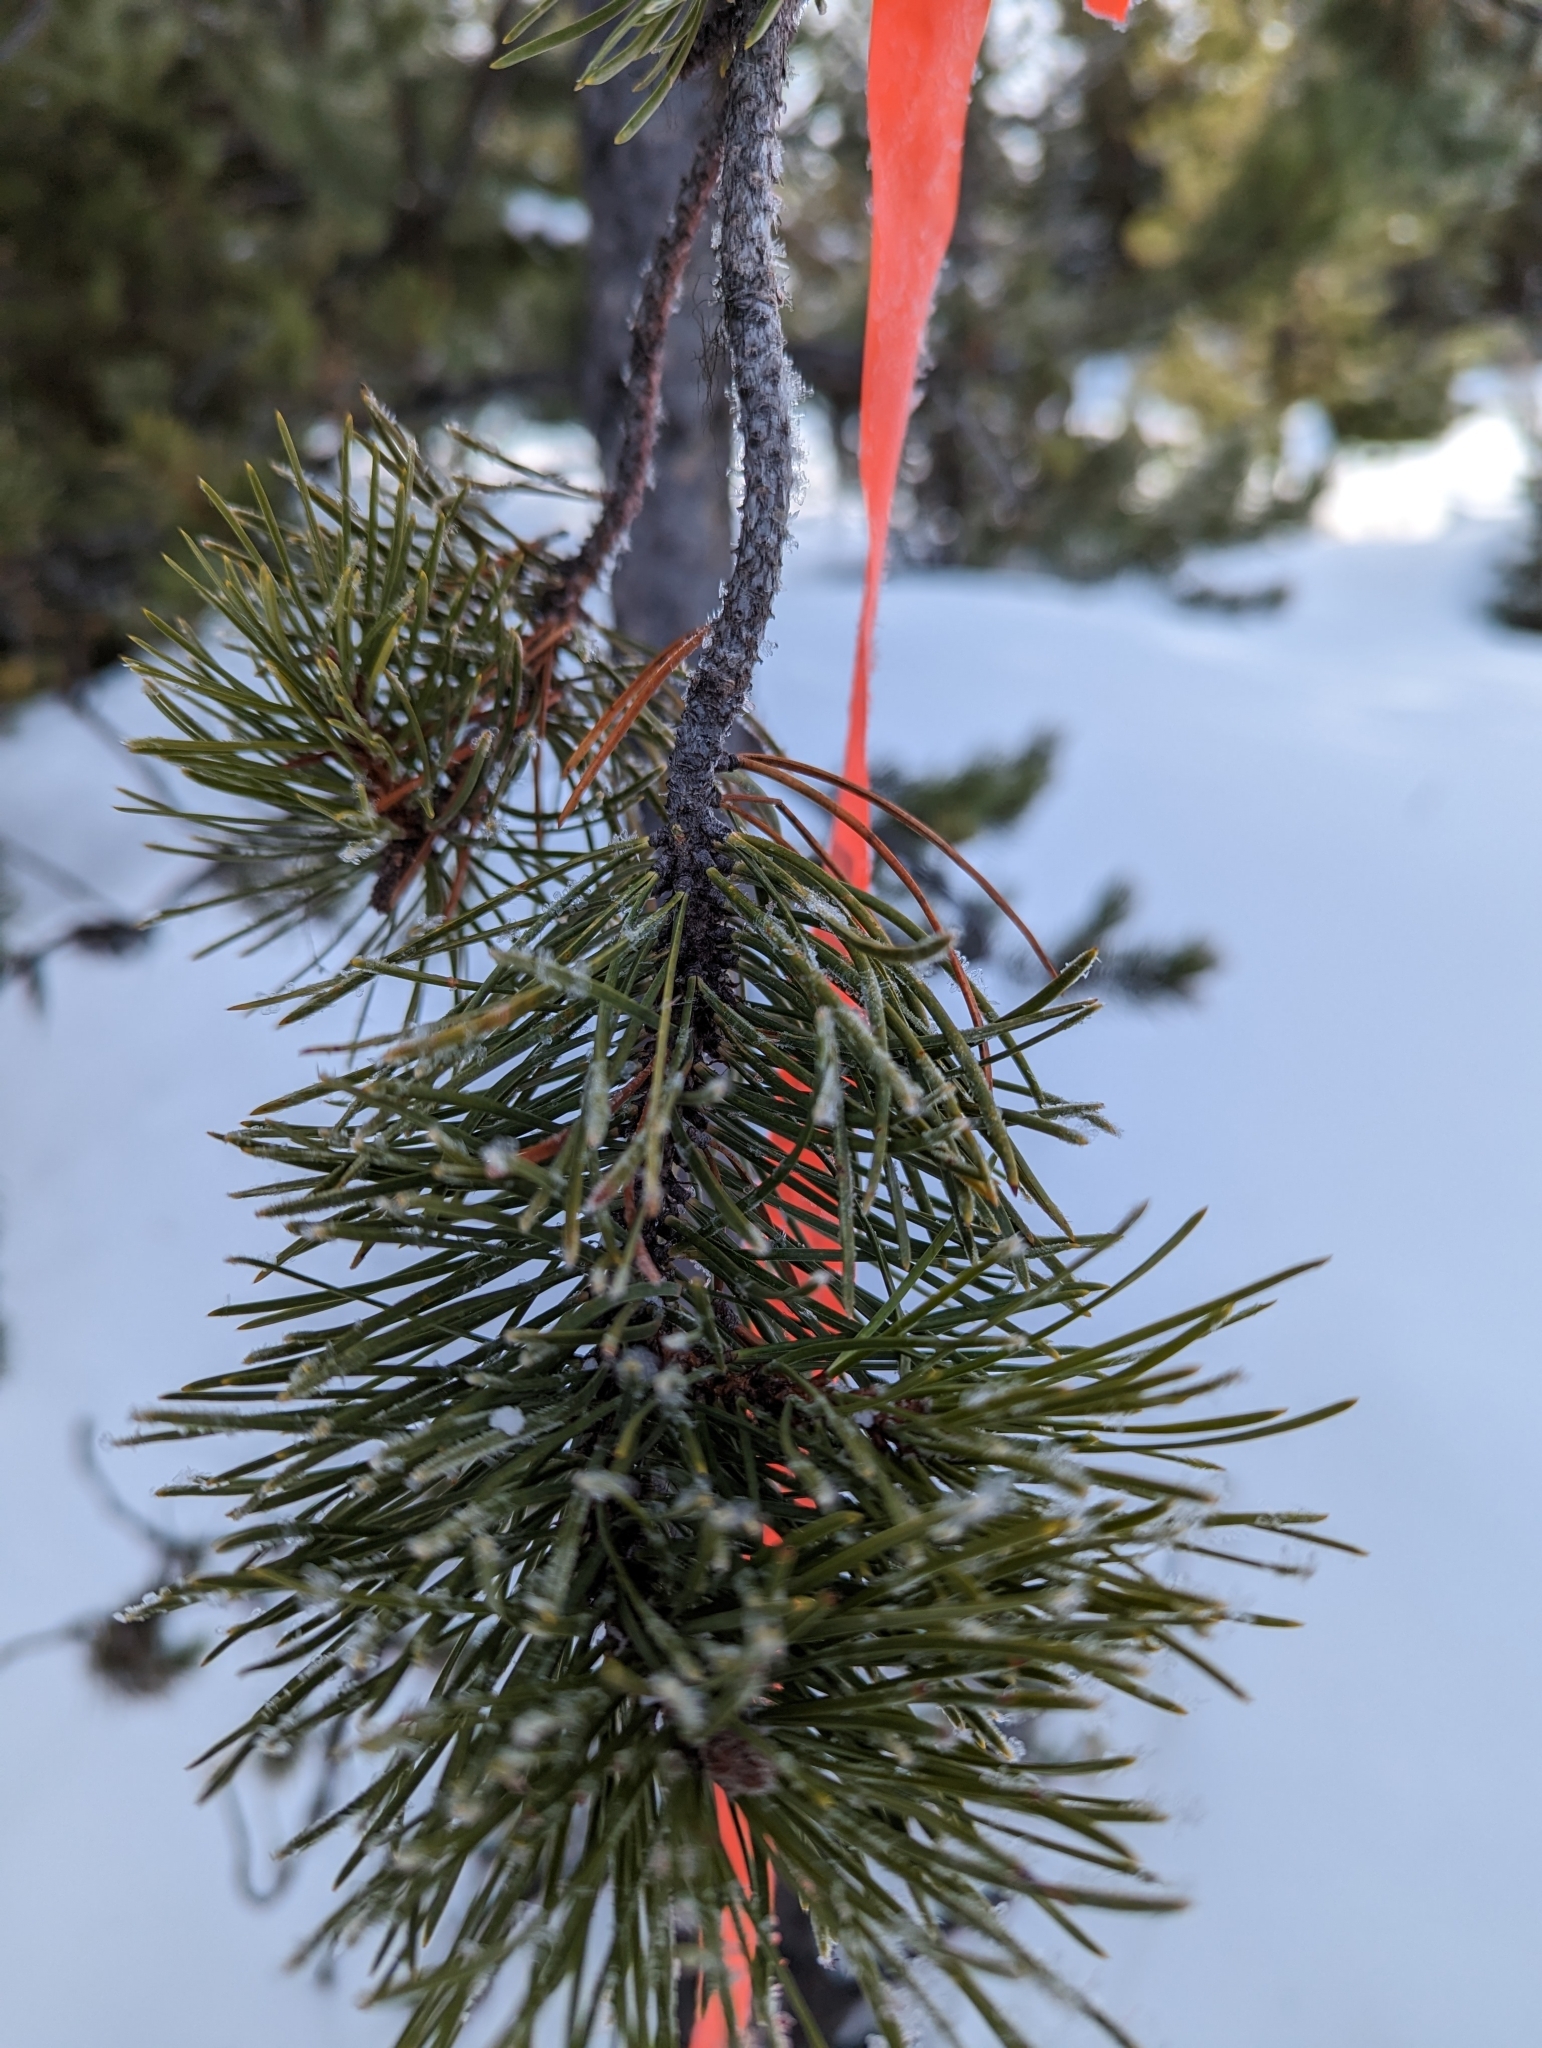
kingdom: Plantae
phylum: Tracheophyta
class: Pinopsida
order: Pinales
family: Pinaceae
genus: Pinus
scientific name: Pinus contorta
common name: Lodgepole pine
